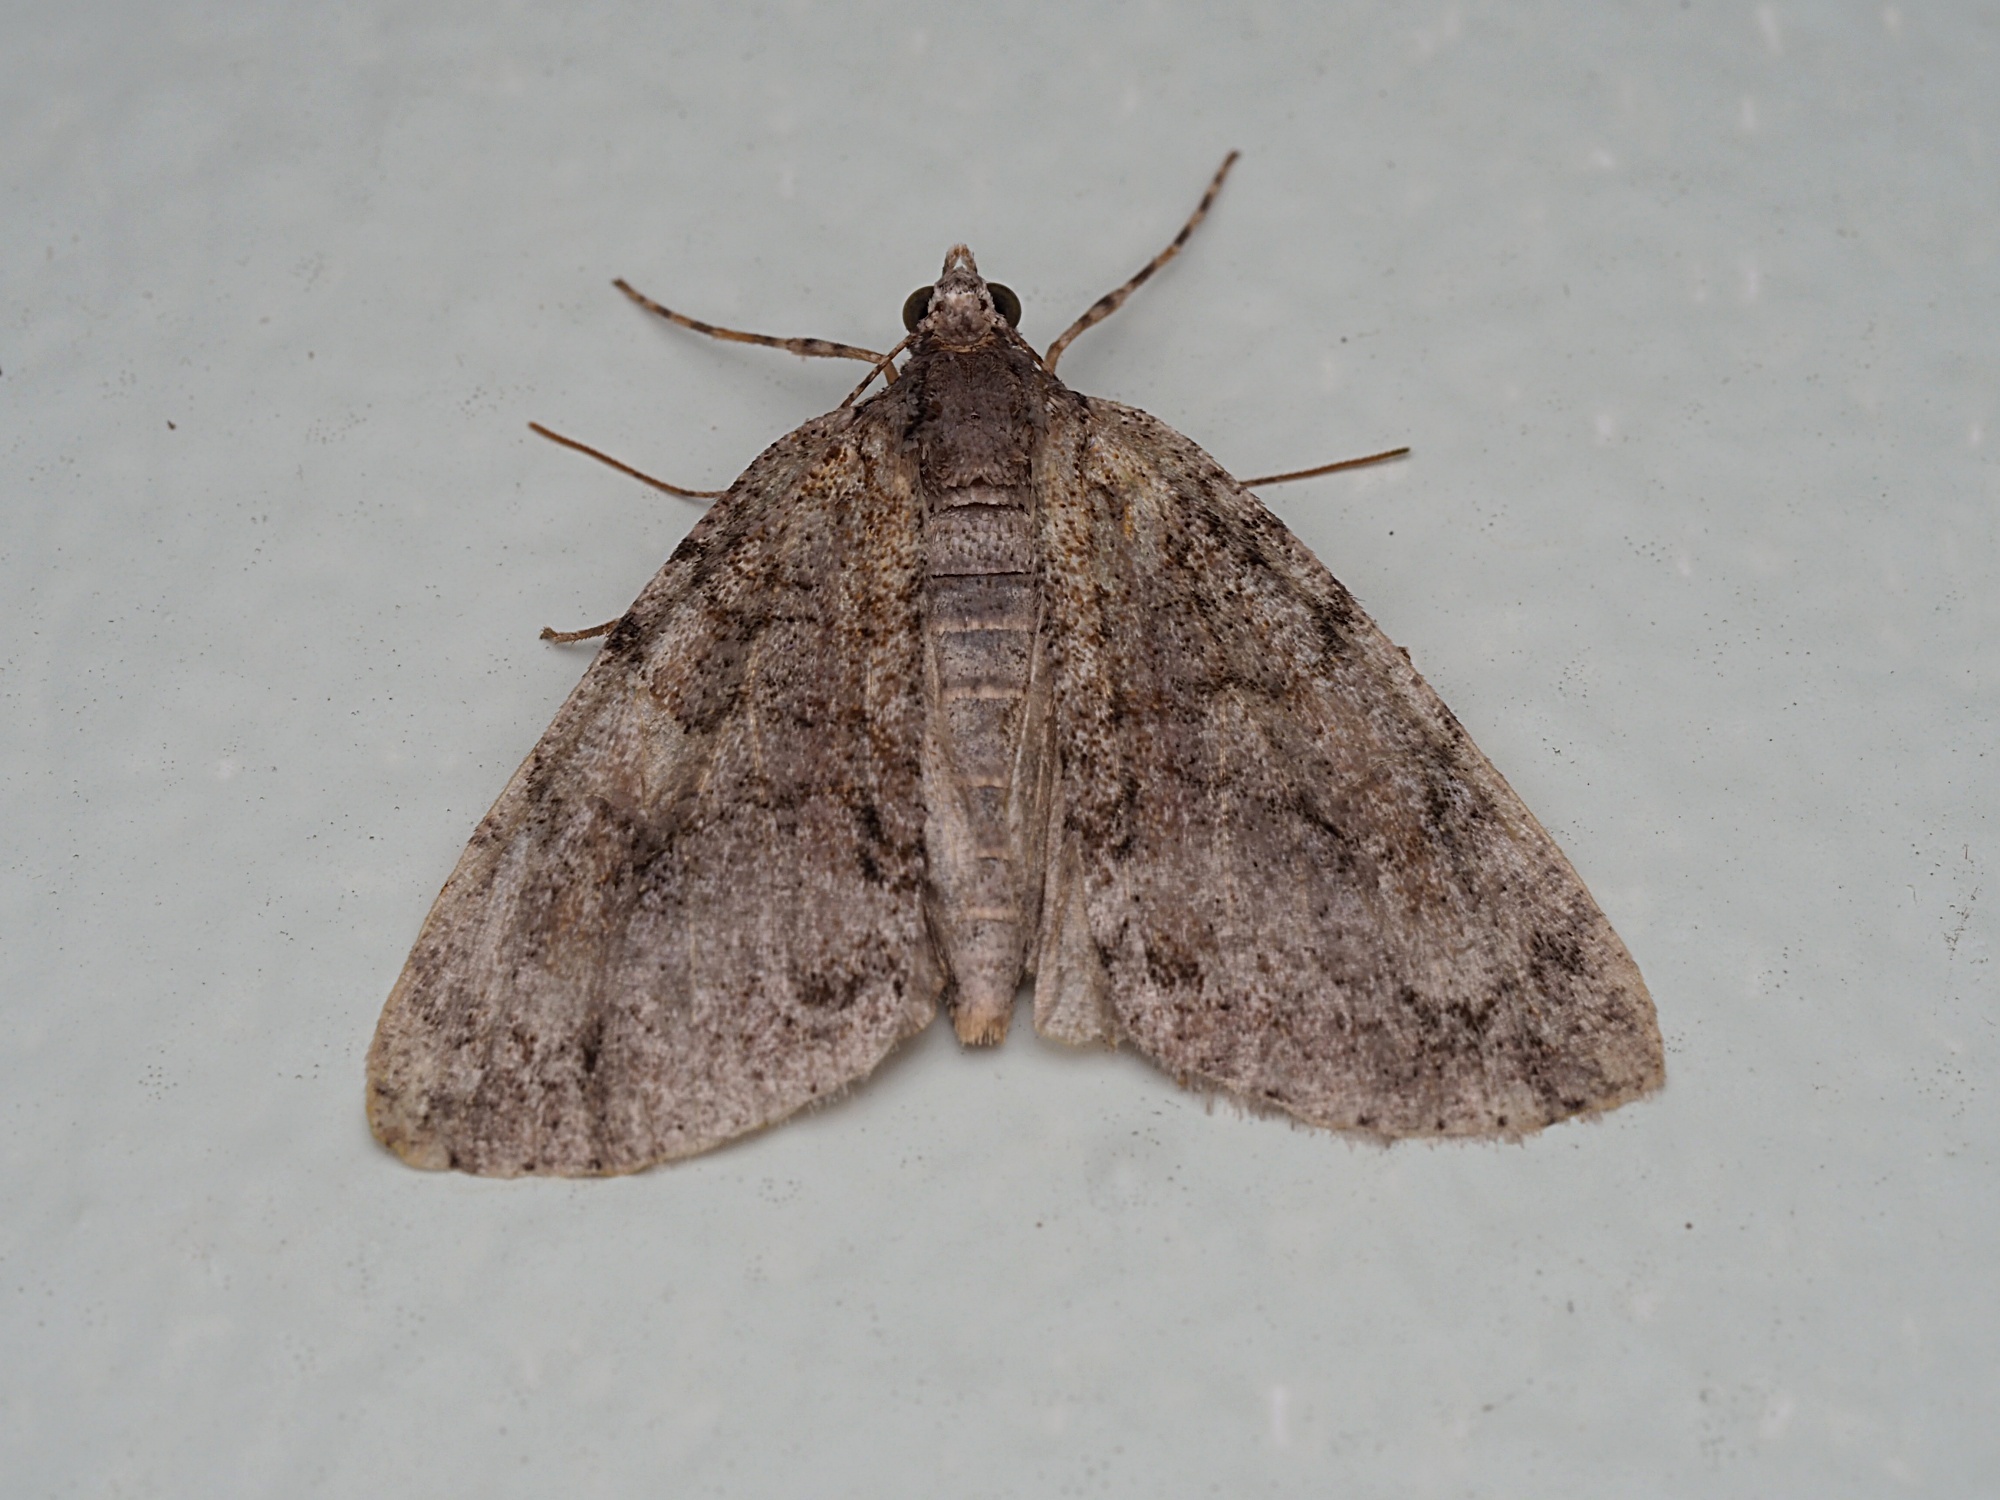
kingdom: Animalia
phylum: Arthropoda
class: Insecta
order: Lepidoptera
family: Geometridae
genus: Pseudocoremia
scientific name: Pseudocoremia suavis
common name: Common forest looper
